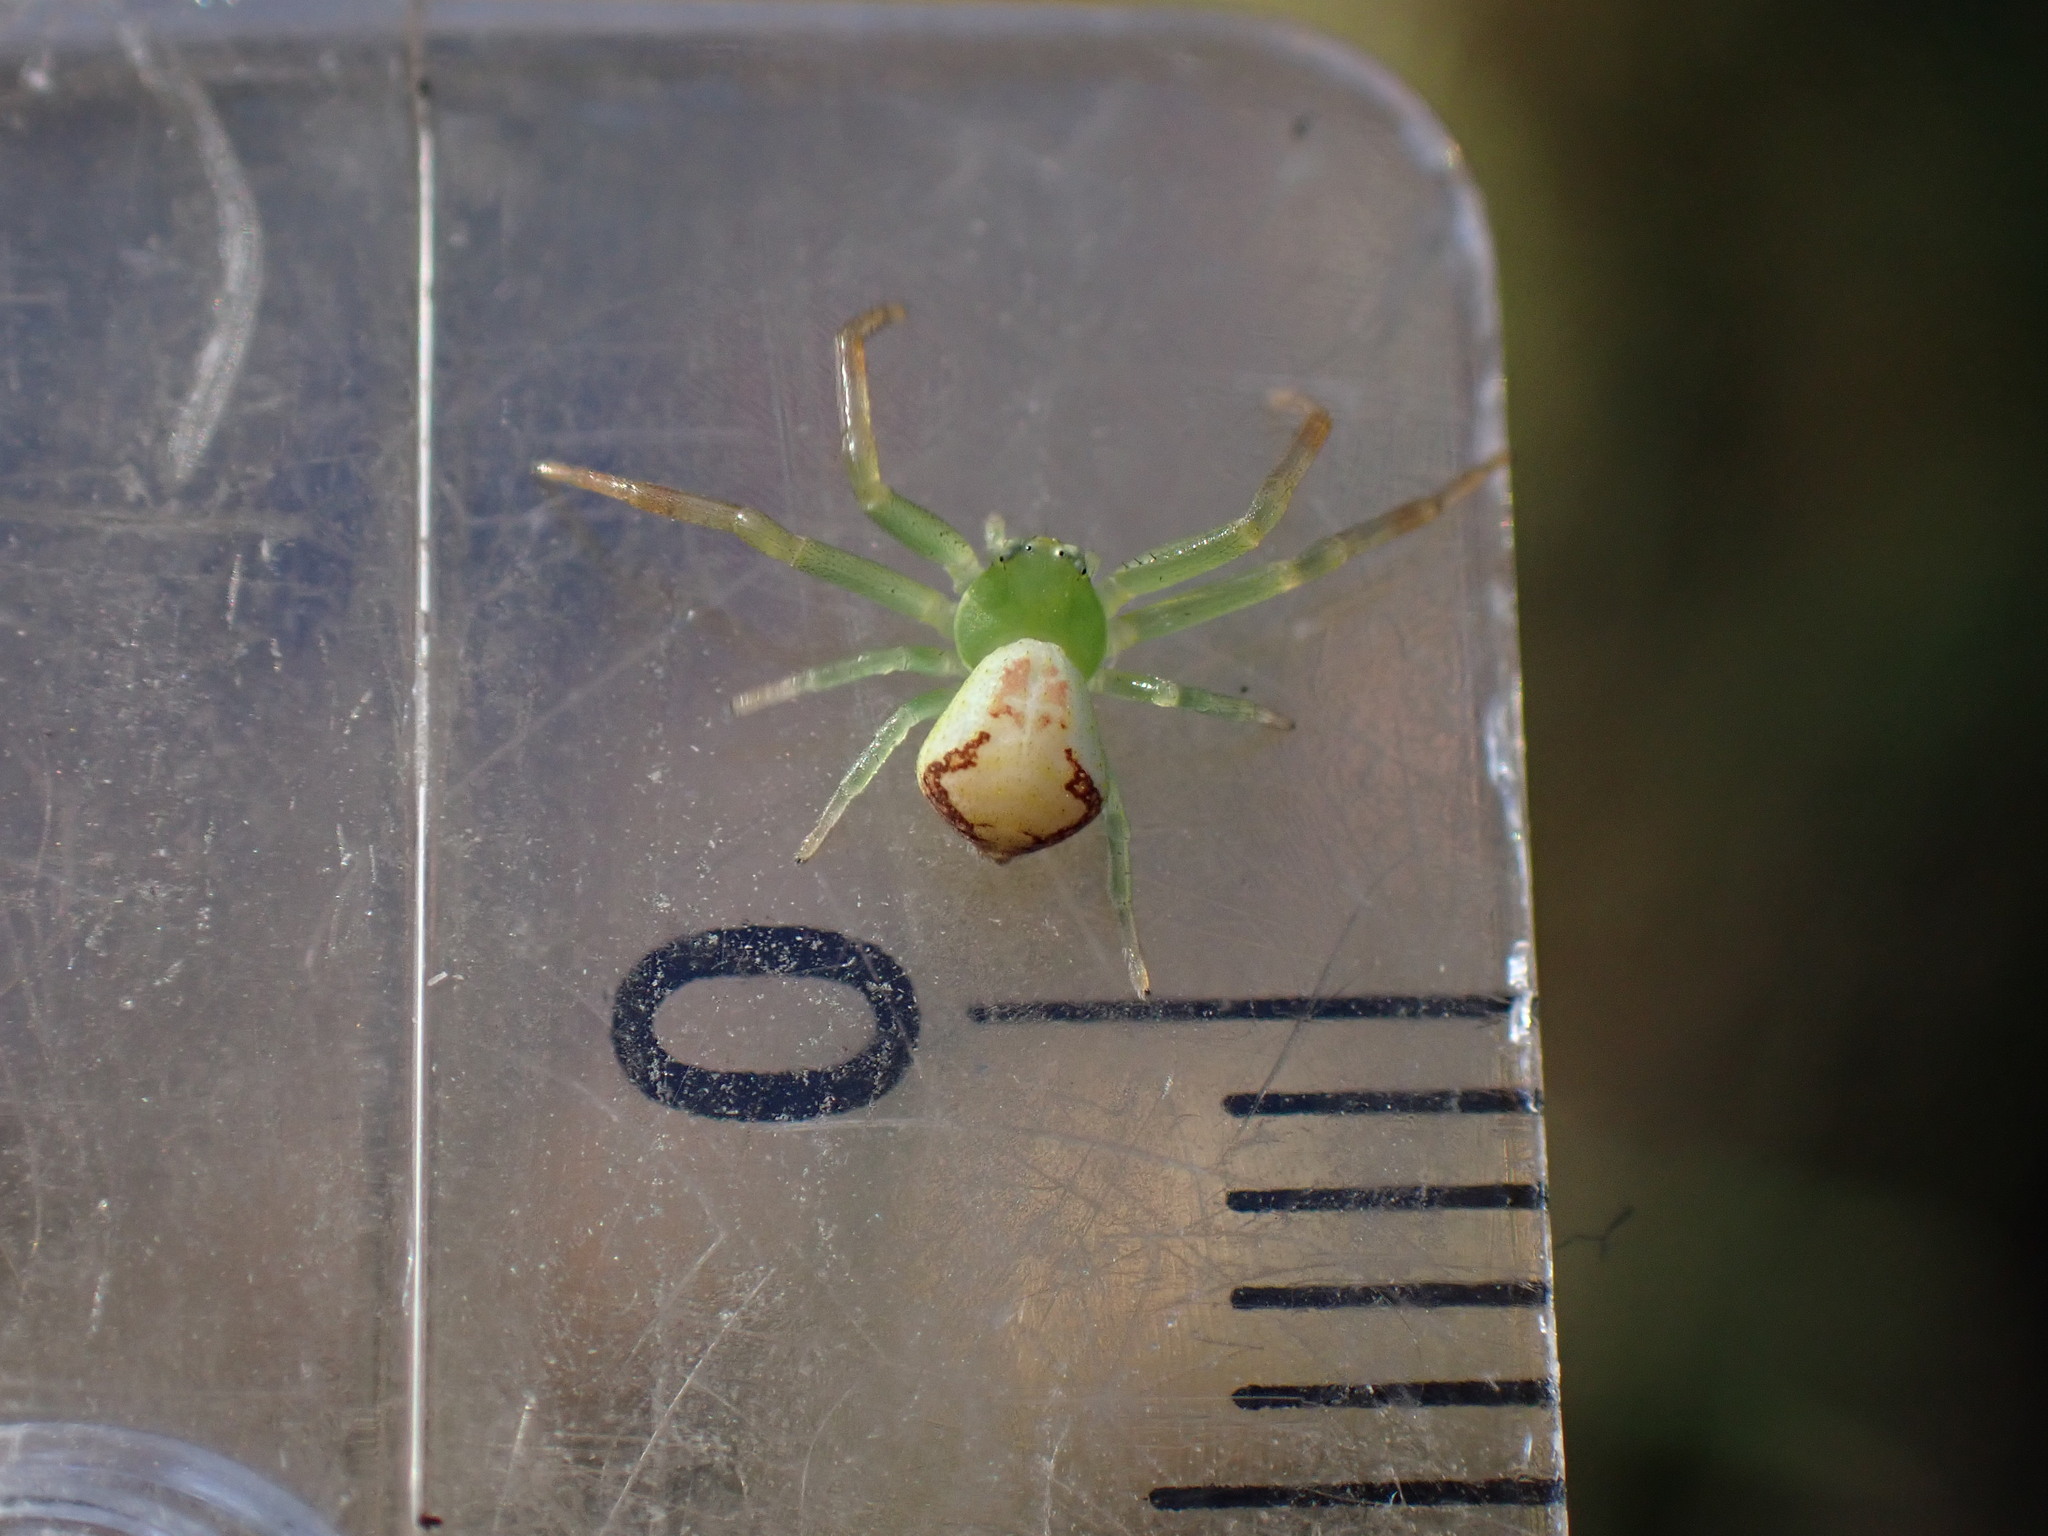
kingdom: Animalia
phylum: Arthropoda
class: Arachnida
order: Araneae
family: Thomisidae
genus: Ebrechtella
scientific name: Ebrechtella tricuspidata
